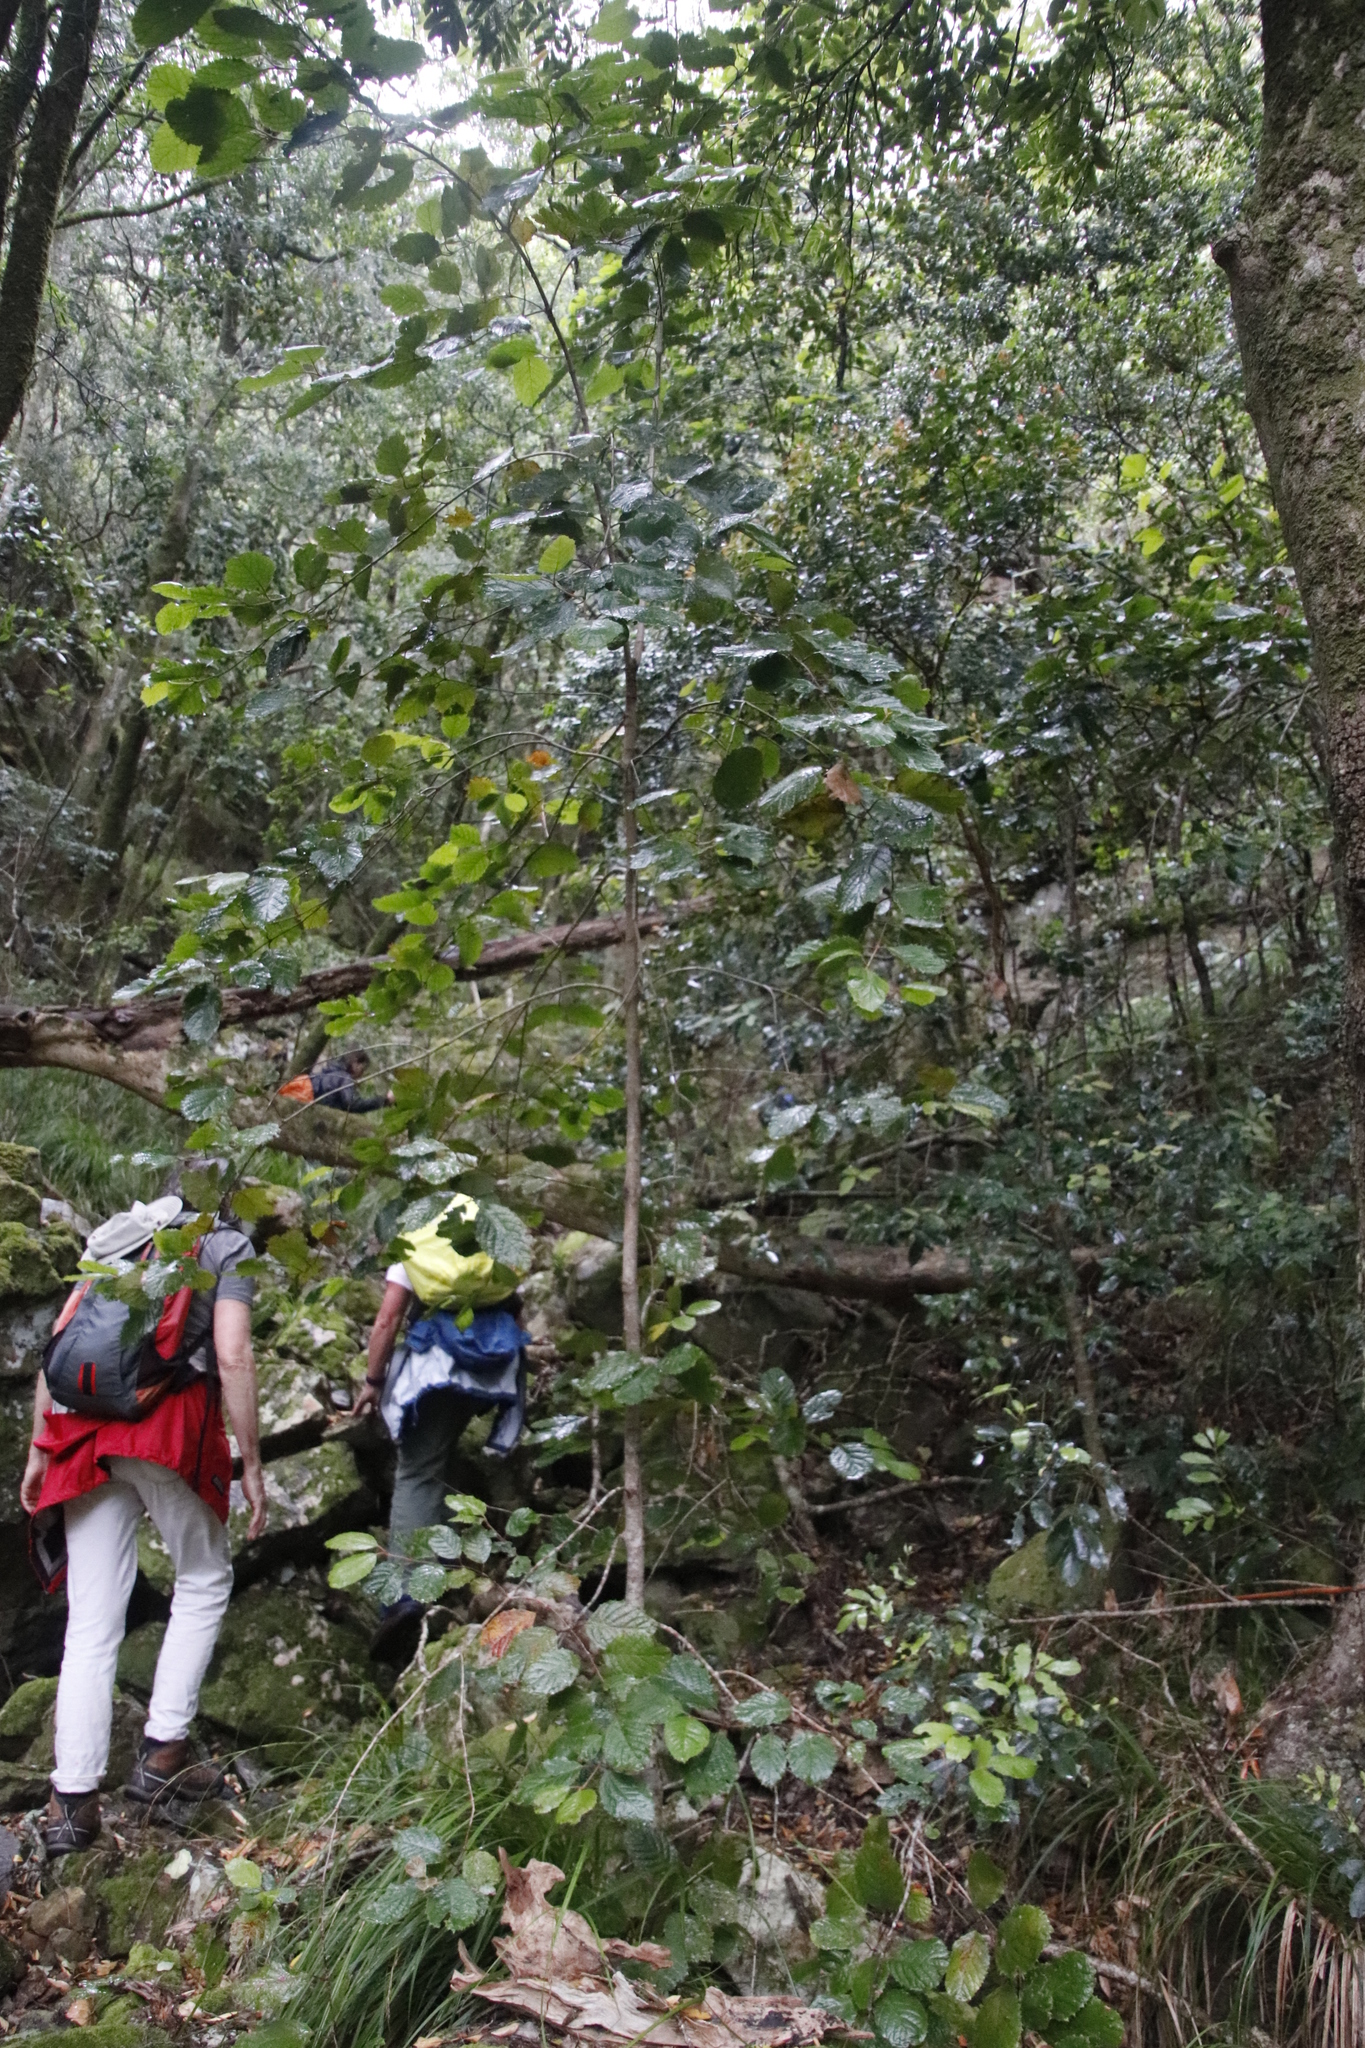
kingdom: Plantae
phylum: Tracheophyta
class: Magnoliopsida
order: Cornales
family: Curtisiaceae
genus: Curtisia
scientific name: Curtisia dentata
